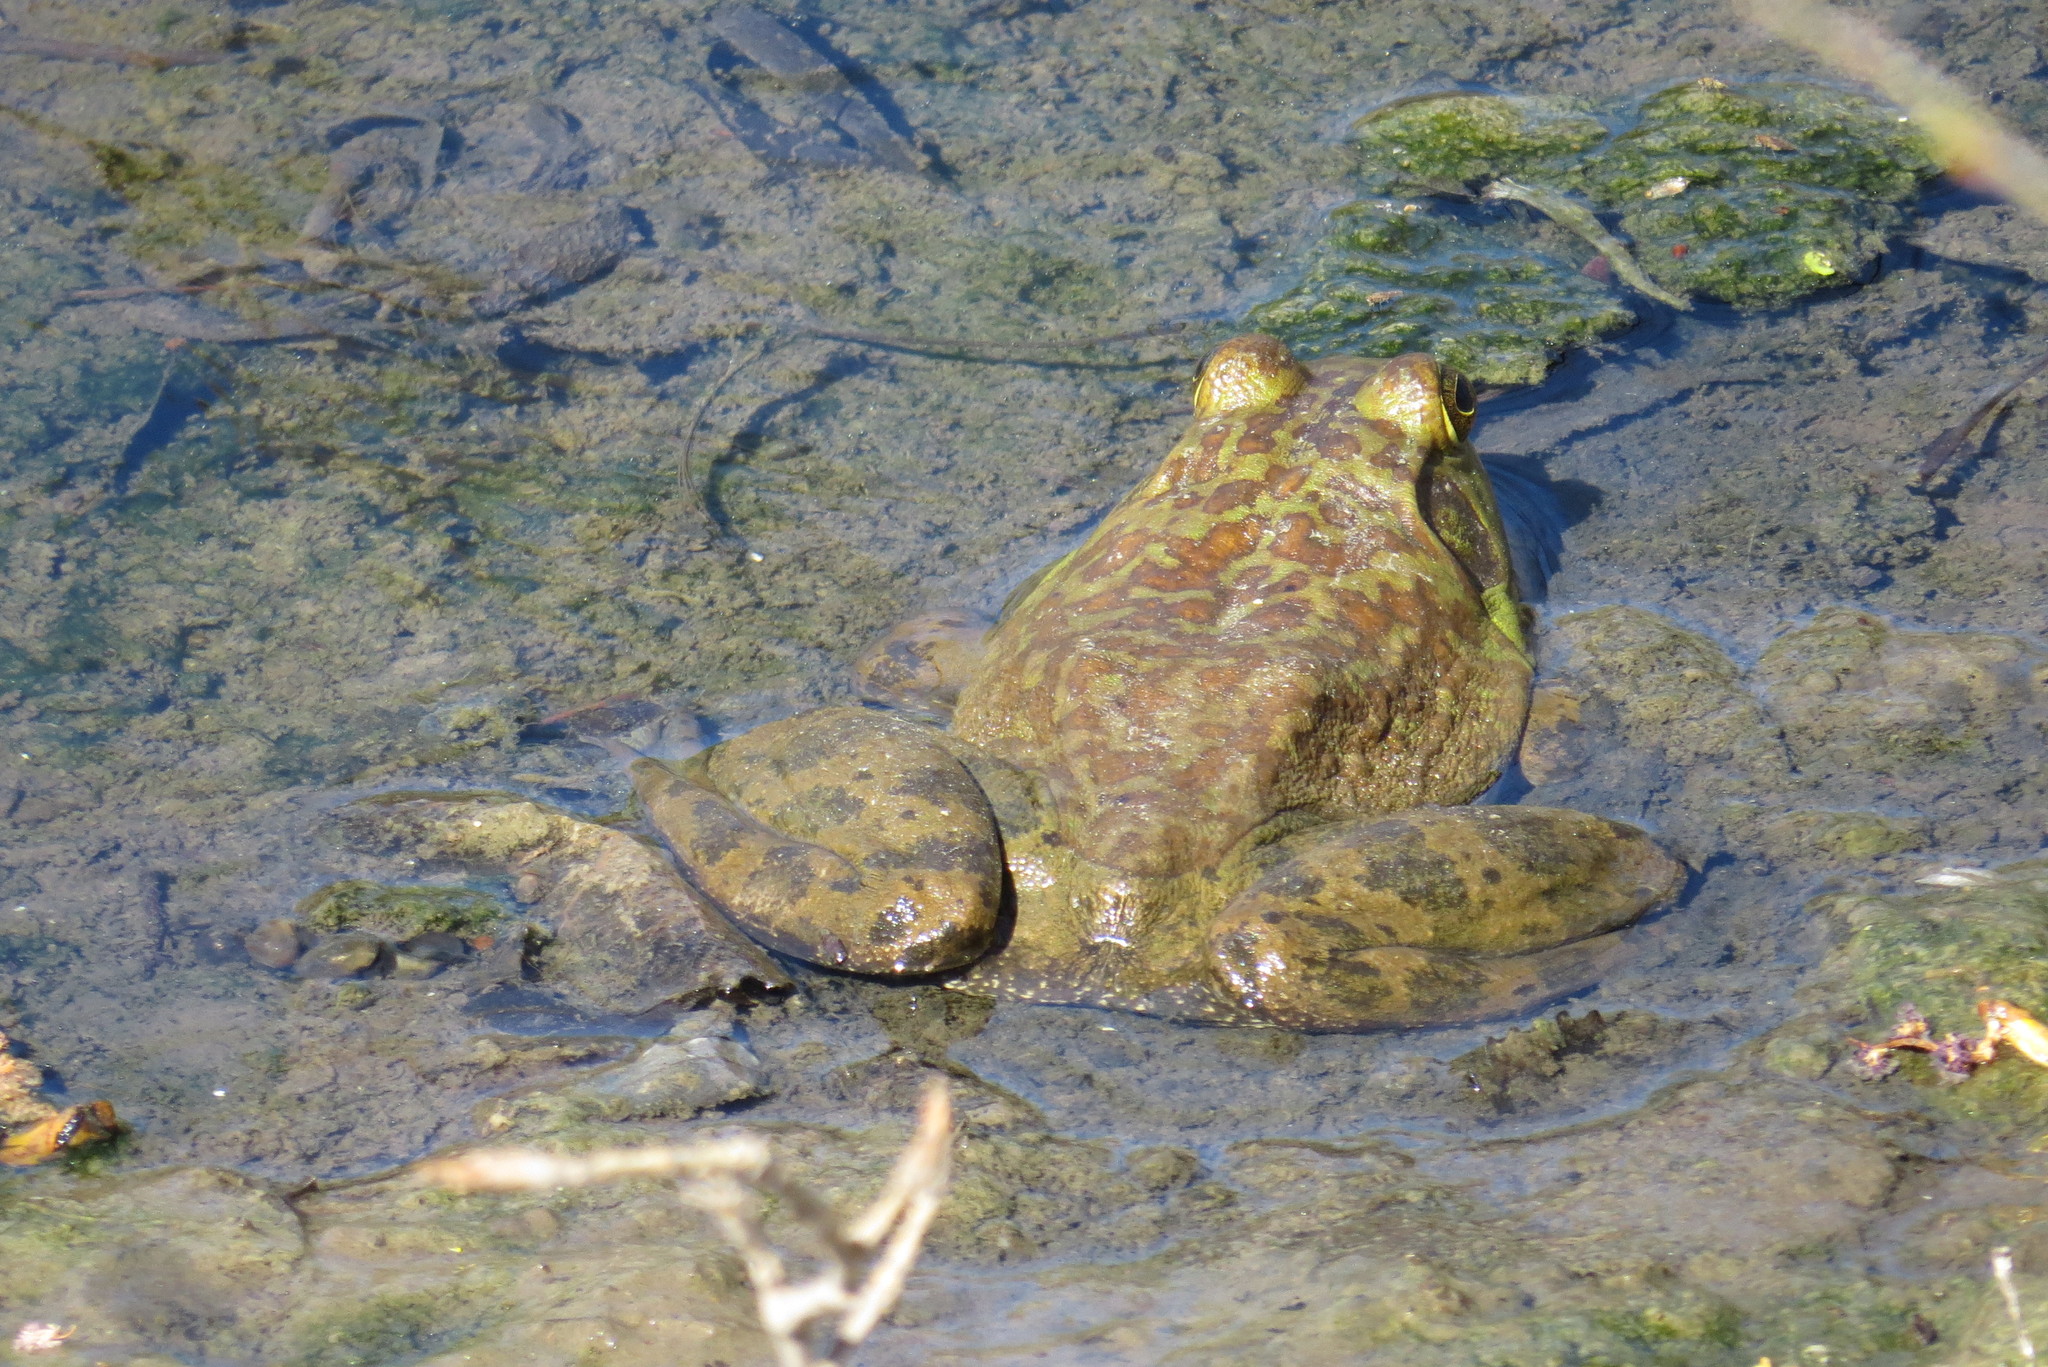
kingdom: Animalia
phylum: Chordata
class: Amphibia
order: Anura
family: Ranidae
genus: Lithobates
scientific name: Lithobates catesbeianus
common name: American bullfrog
